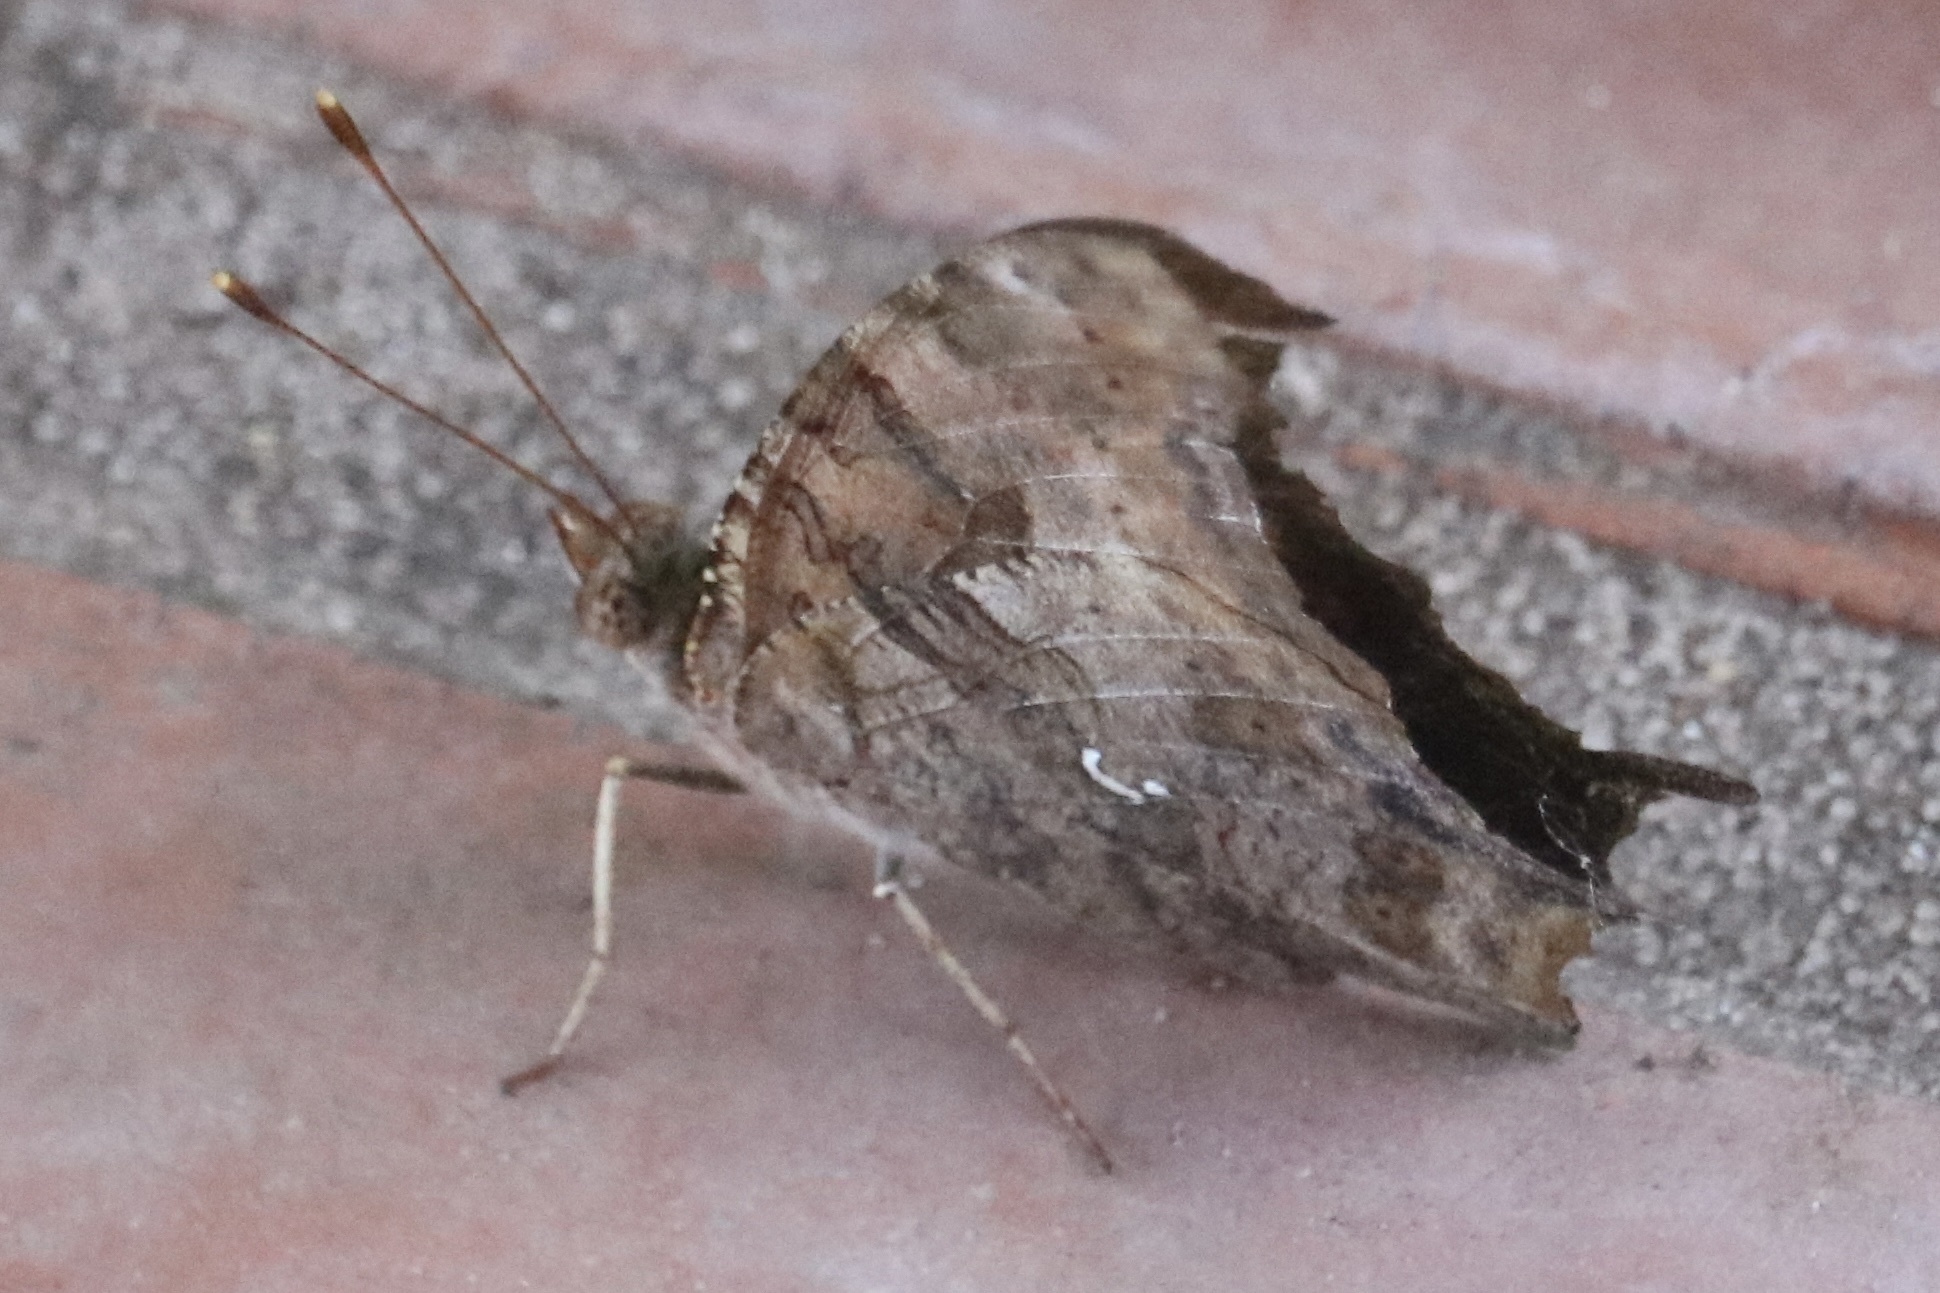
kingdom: Animalia
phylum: Arthropoda
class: Insecta
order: Lepidoptera
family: Nymphalidae
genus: Polygonia
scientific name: Polygonia interrogationis
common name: Question mark
